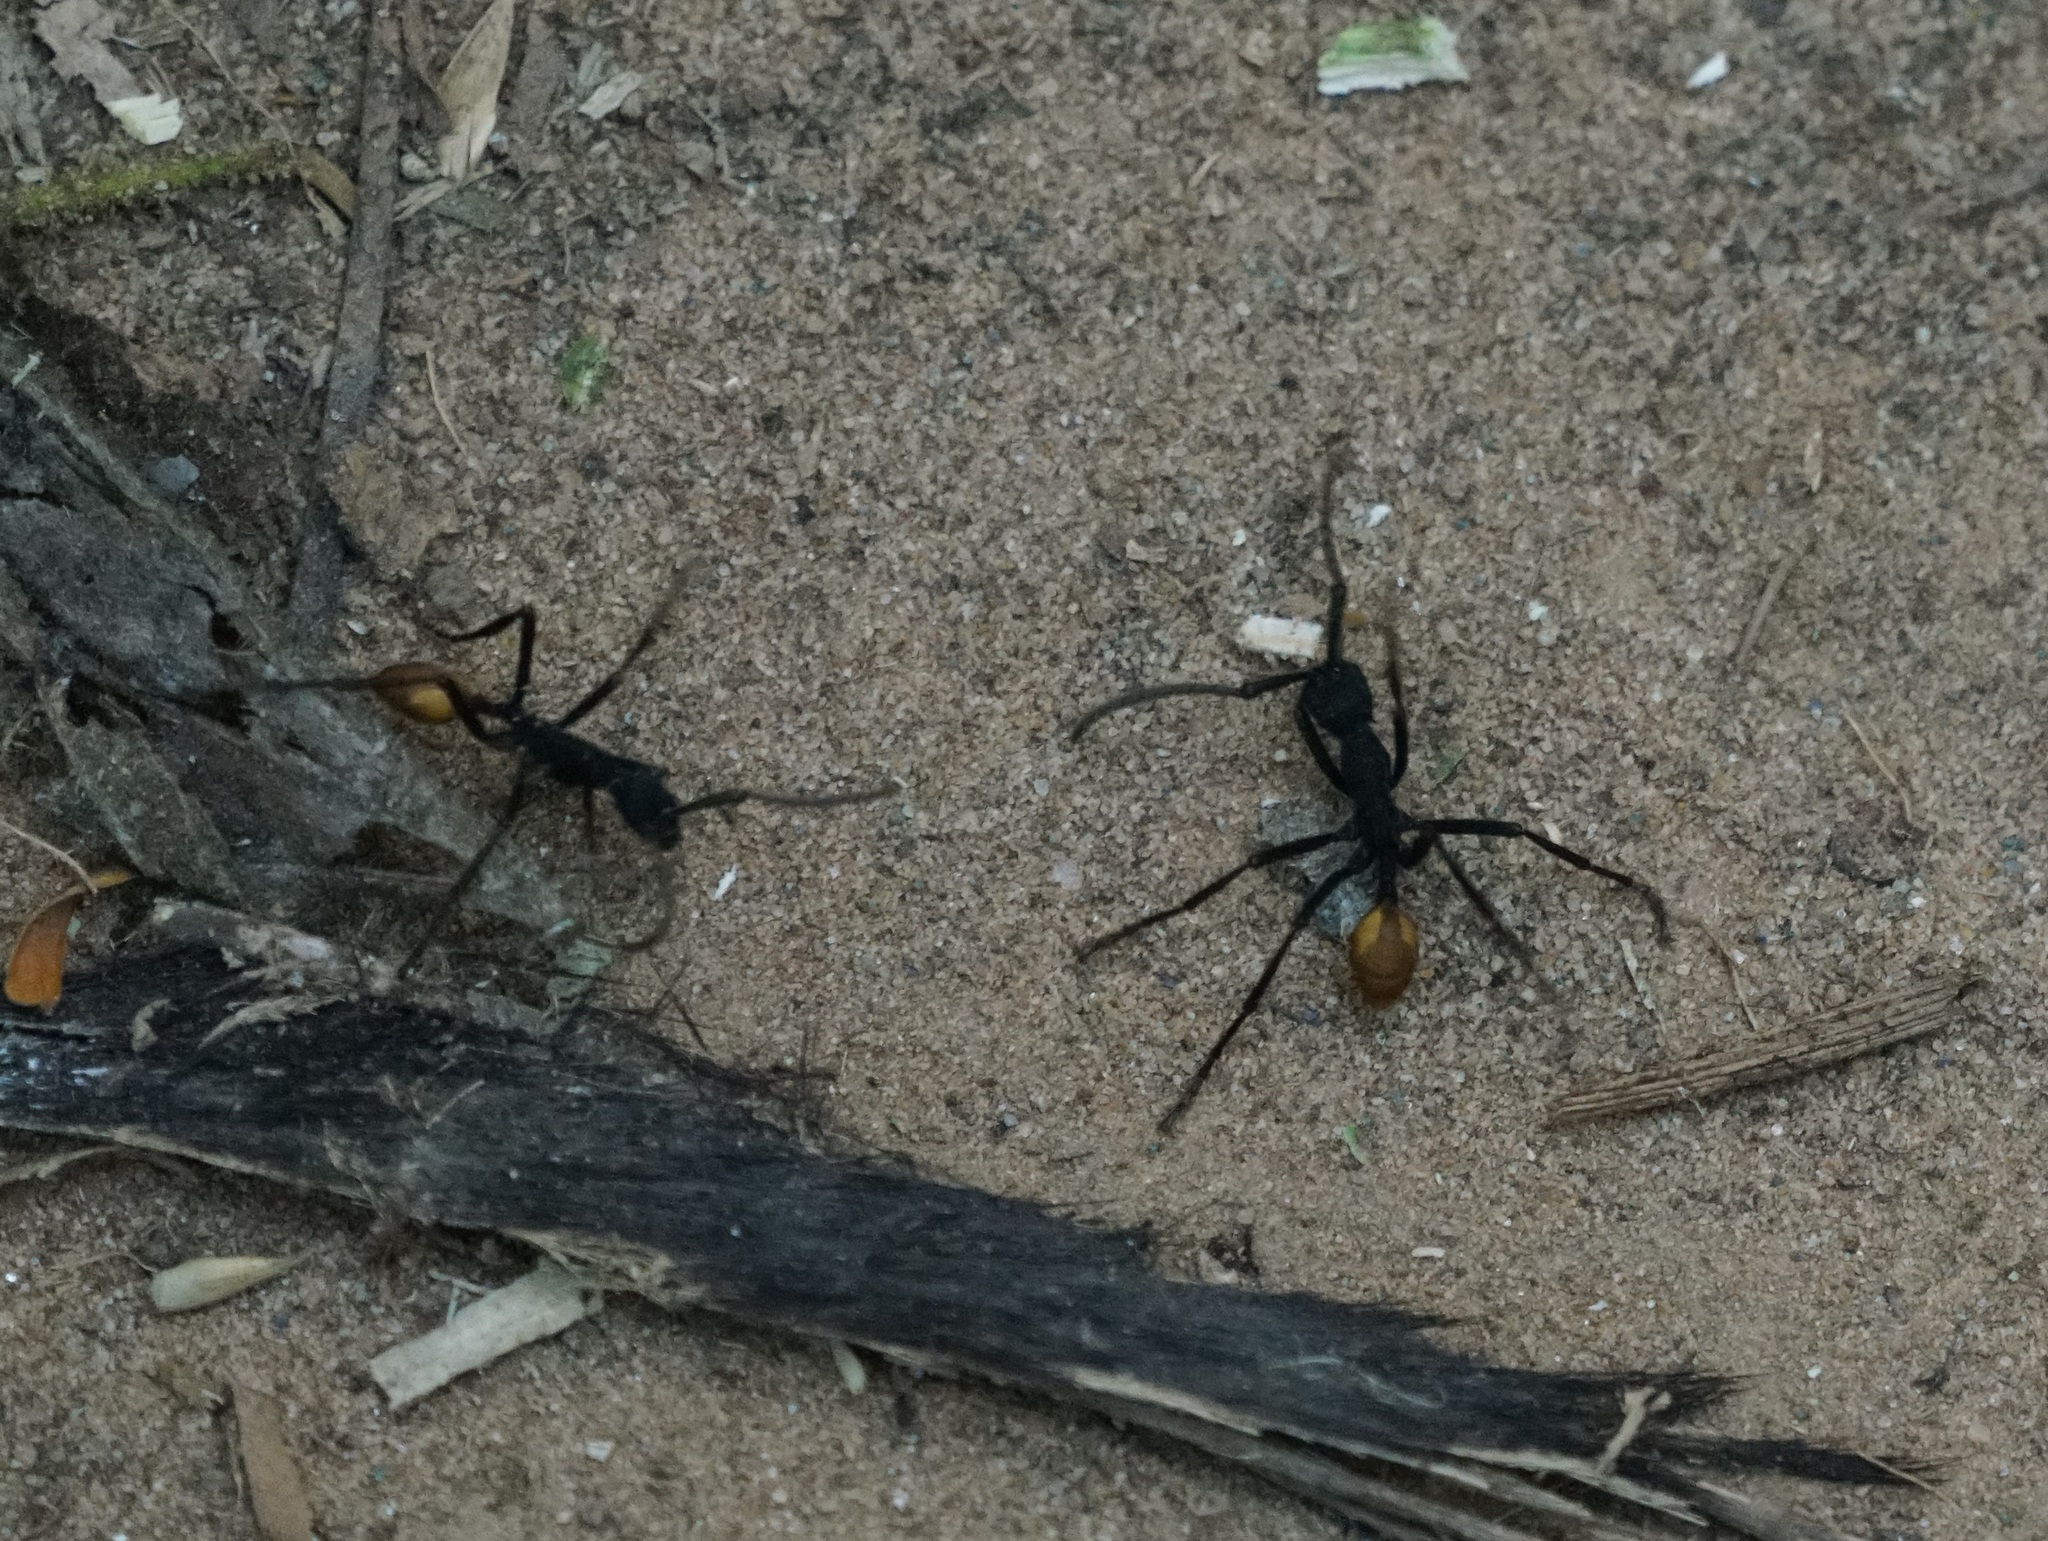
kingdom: Animalia
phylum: Arthropoda
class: Insecta
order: Hymenoptera
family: Formicidae
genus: Eciton
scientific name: Eciton rapax
